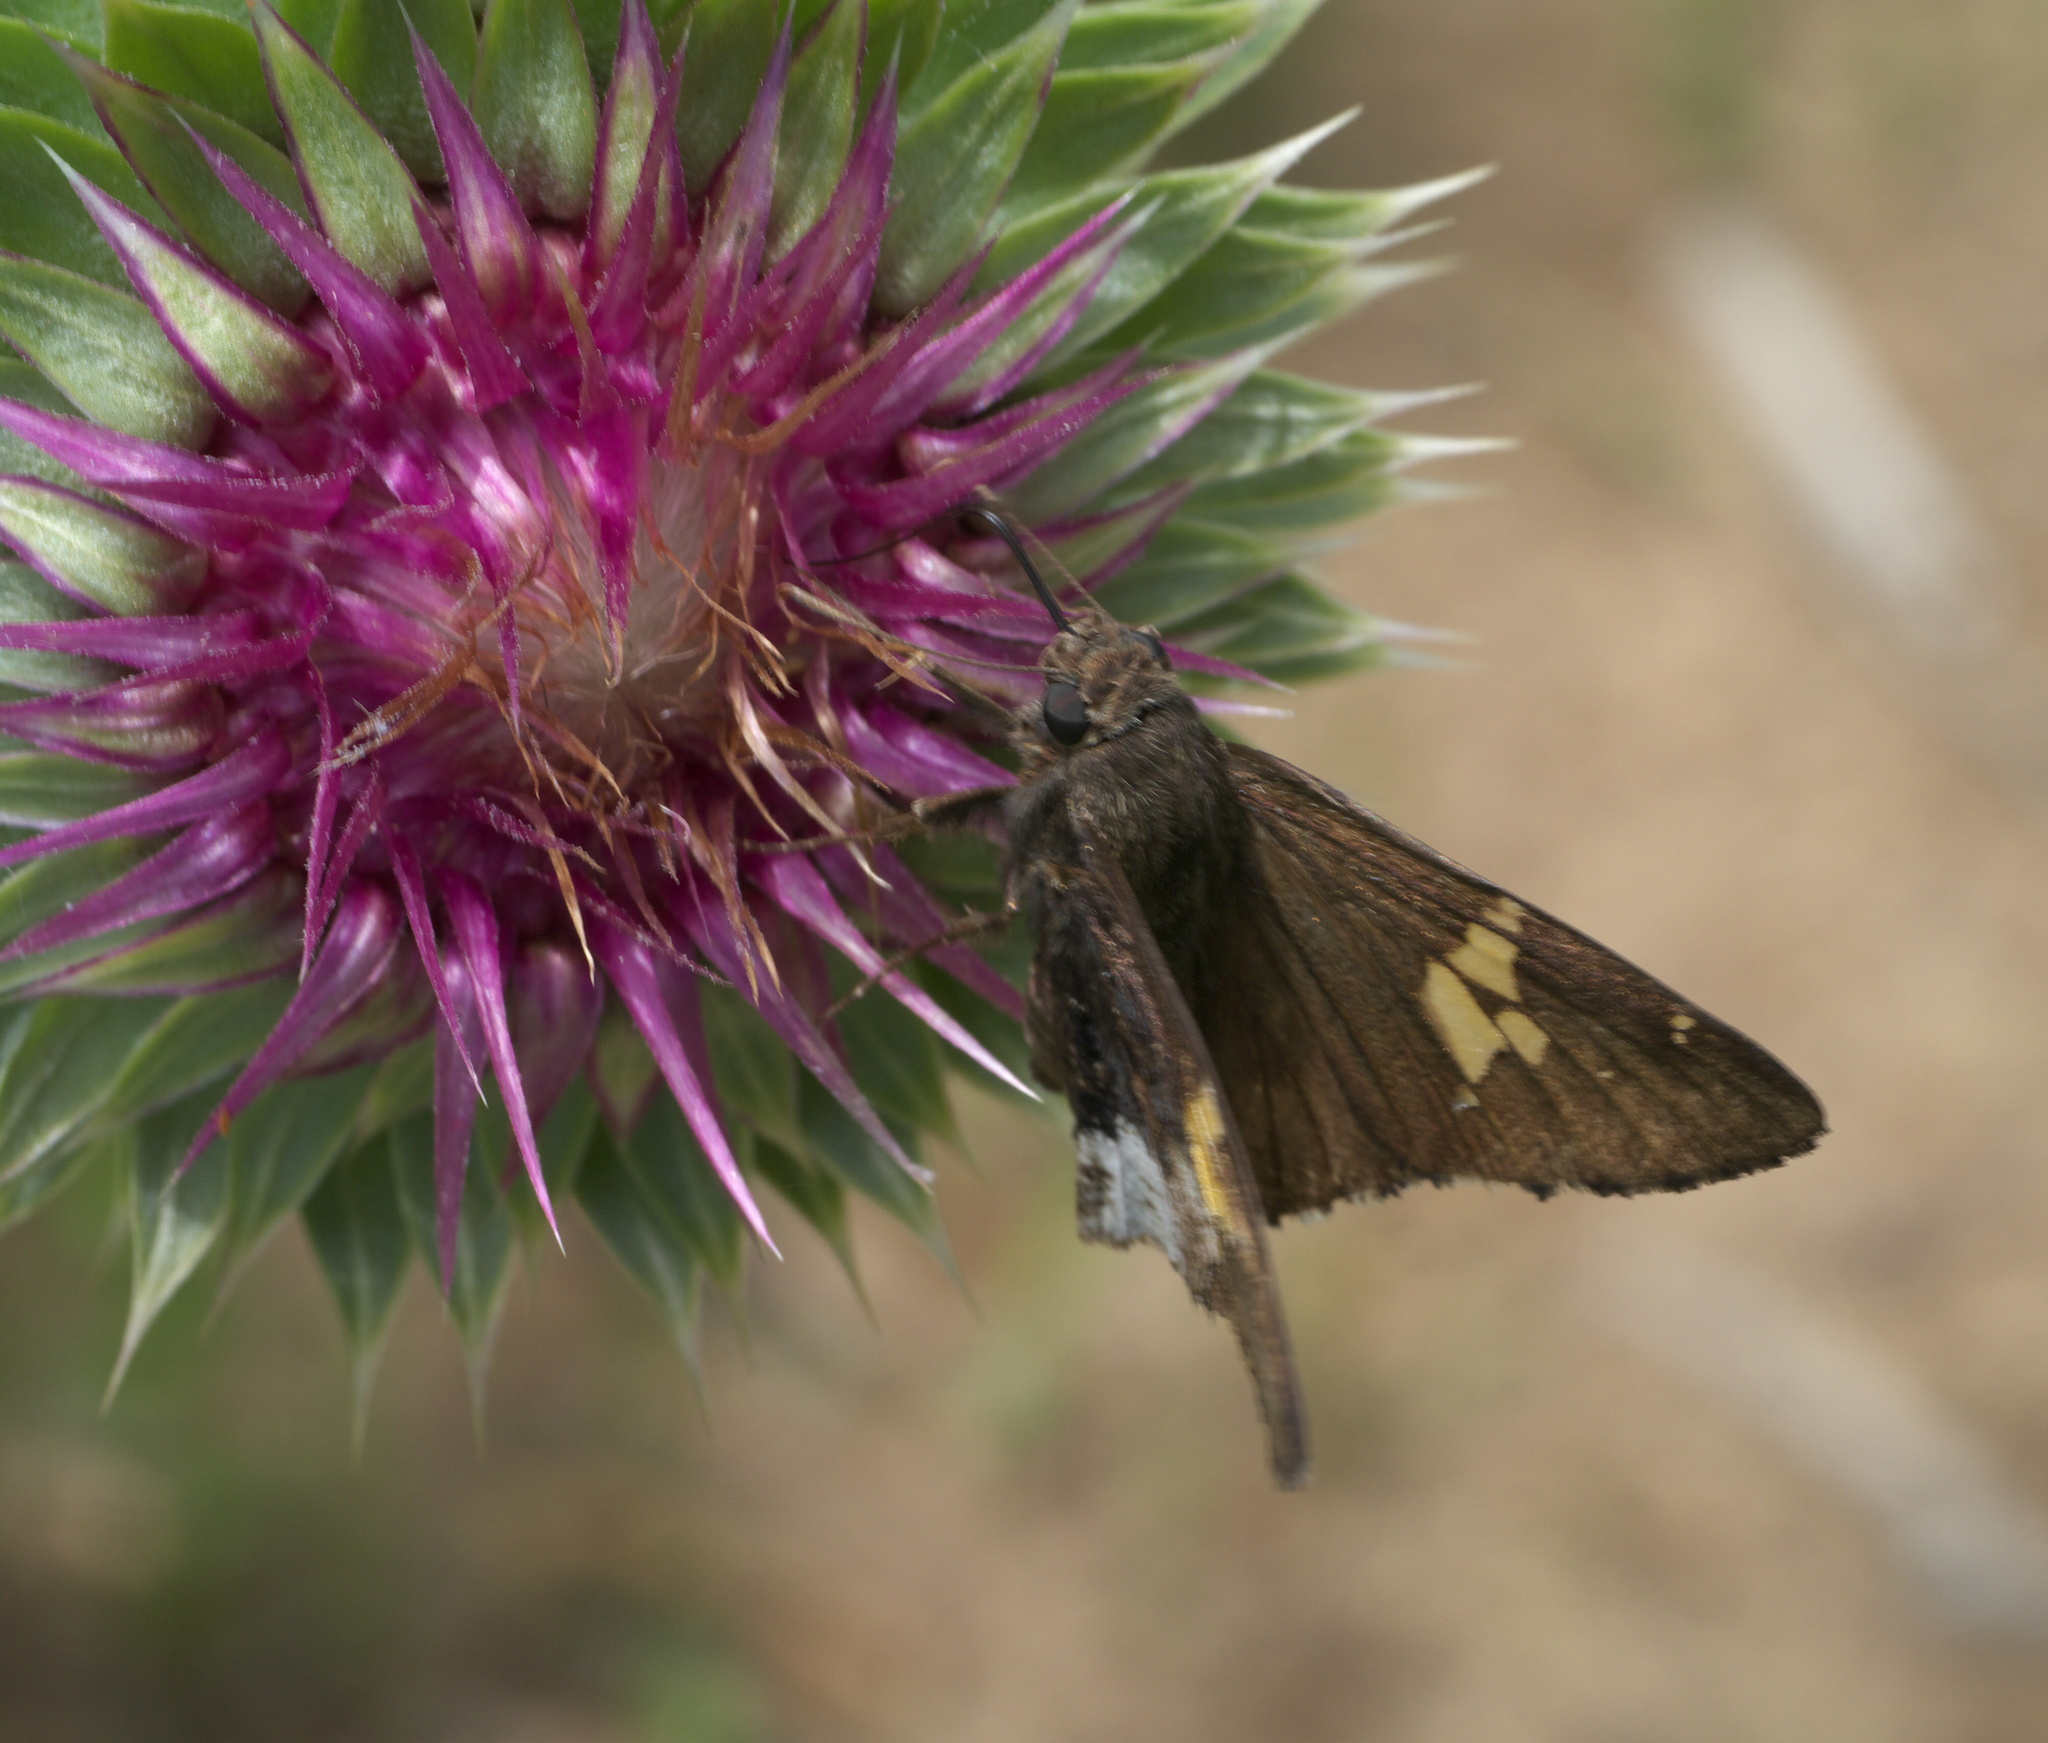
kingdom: Animalia
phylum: Arthropoda
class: Insecta
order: Lepidoptera
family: Hesperiidae
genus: Thorybes
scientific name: Thorybes lyciades
